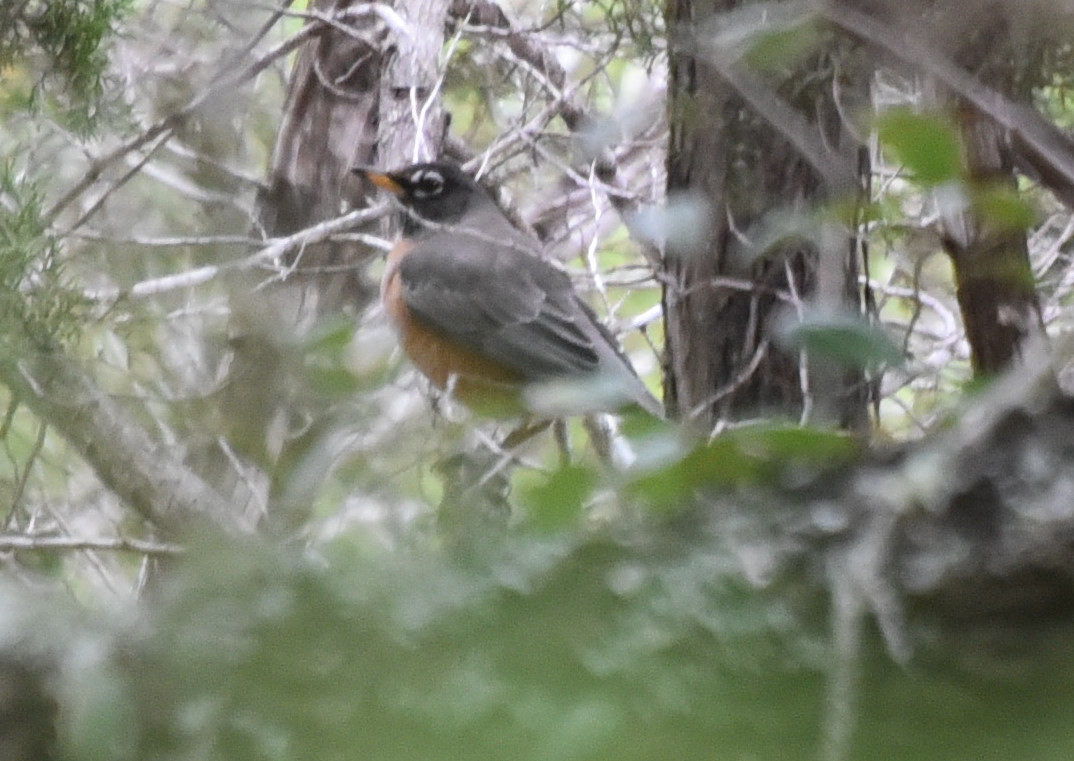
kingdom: Animalia
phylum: Chordata
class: Aves
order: Passeriformes
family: Turdidae
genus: Turdus
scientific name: Turdus migratorius
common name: American robin
